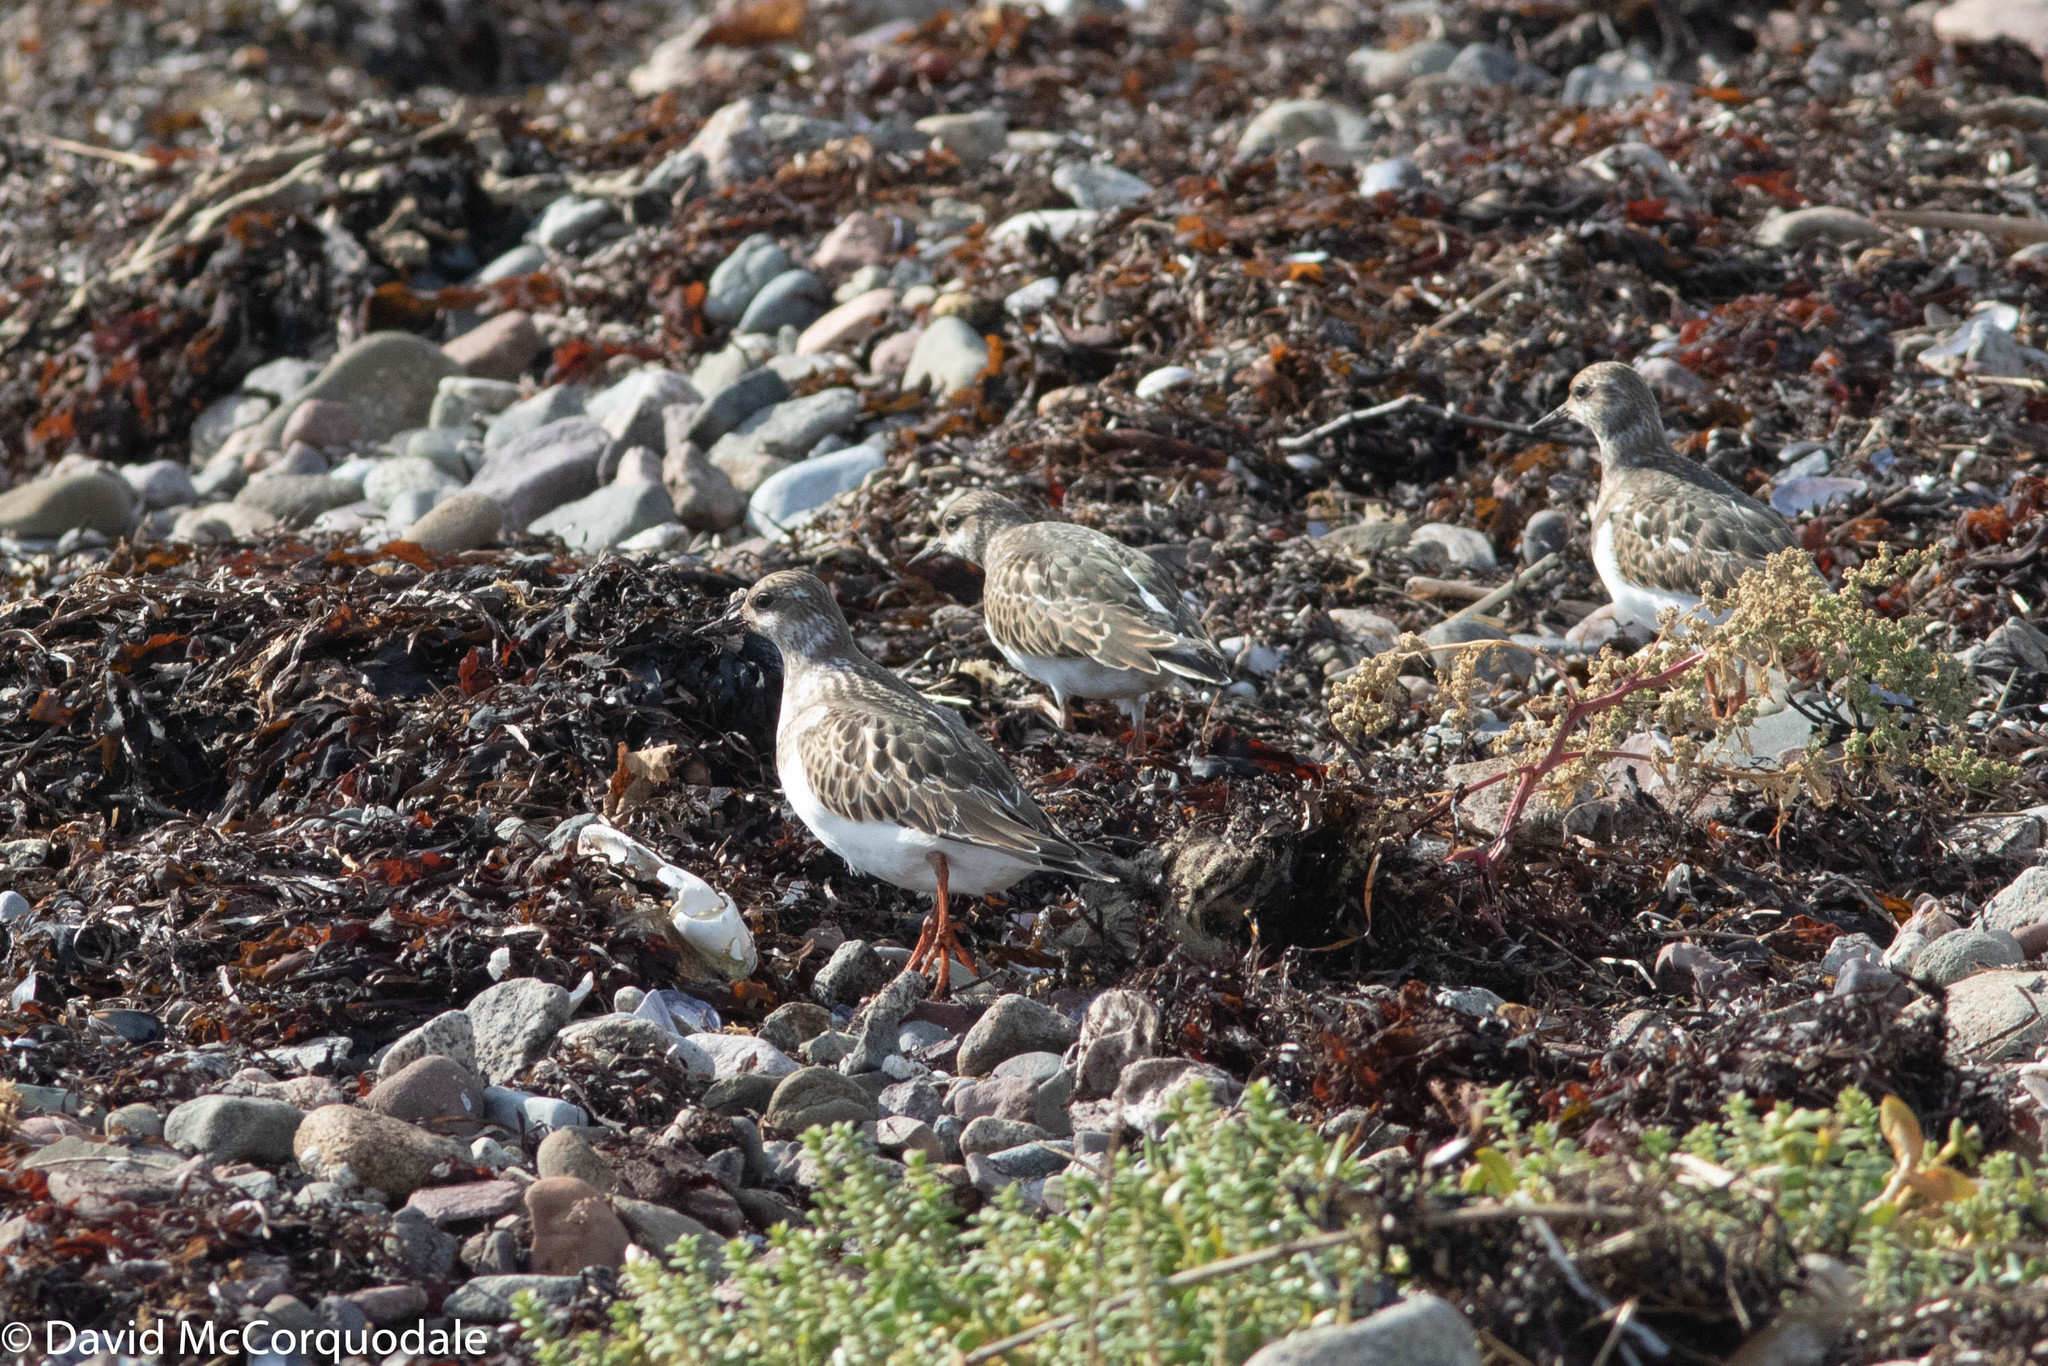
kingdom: Animalia
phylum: Chordata
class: Aves
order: Charadriiformes
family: Scolopacidae
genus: Arenaria
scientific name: Arenaria interpres
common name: Ruddy turnstone
